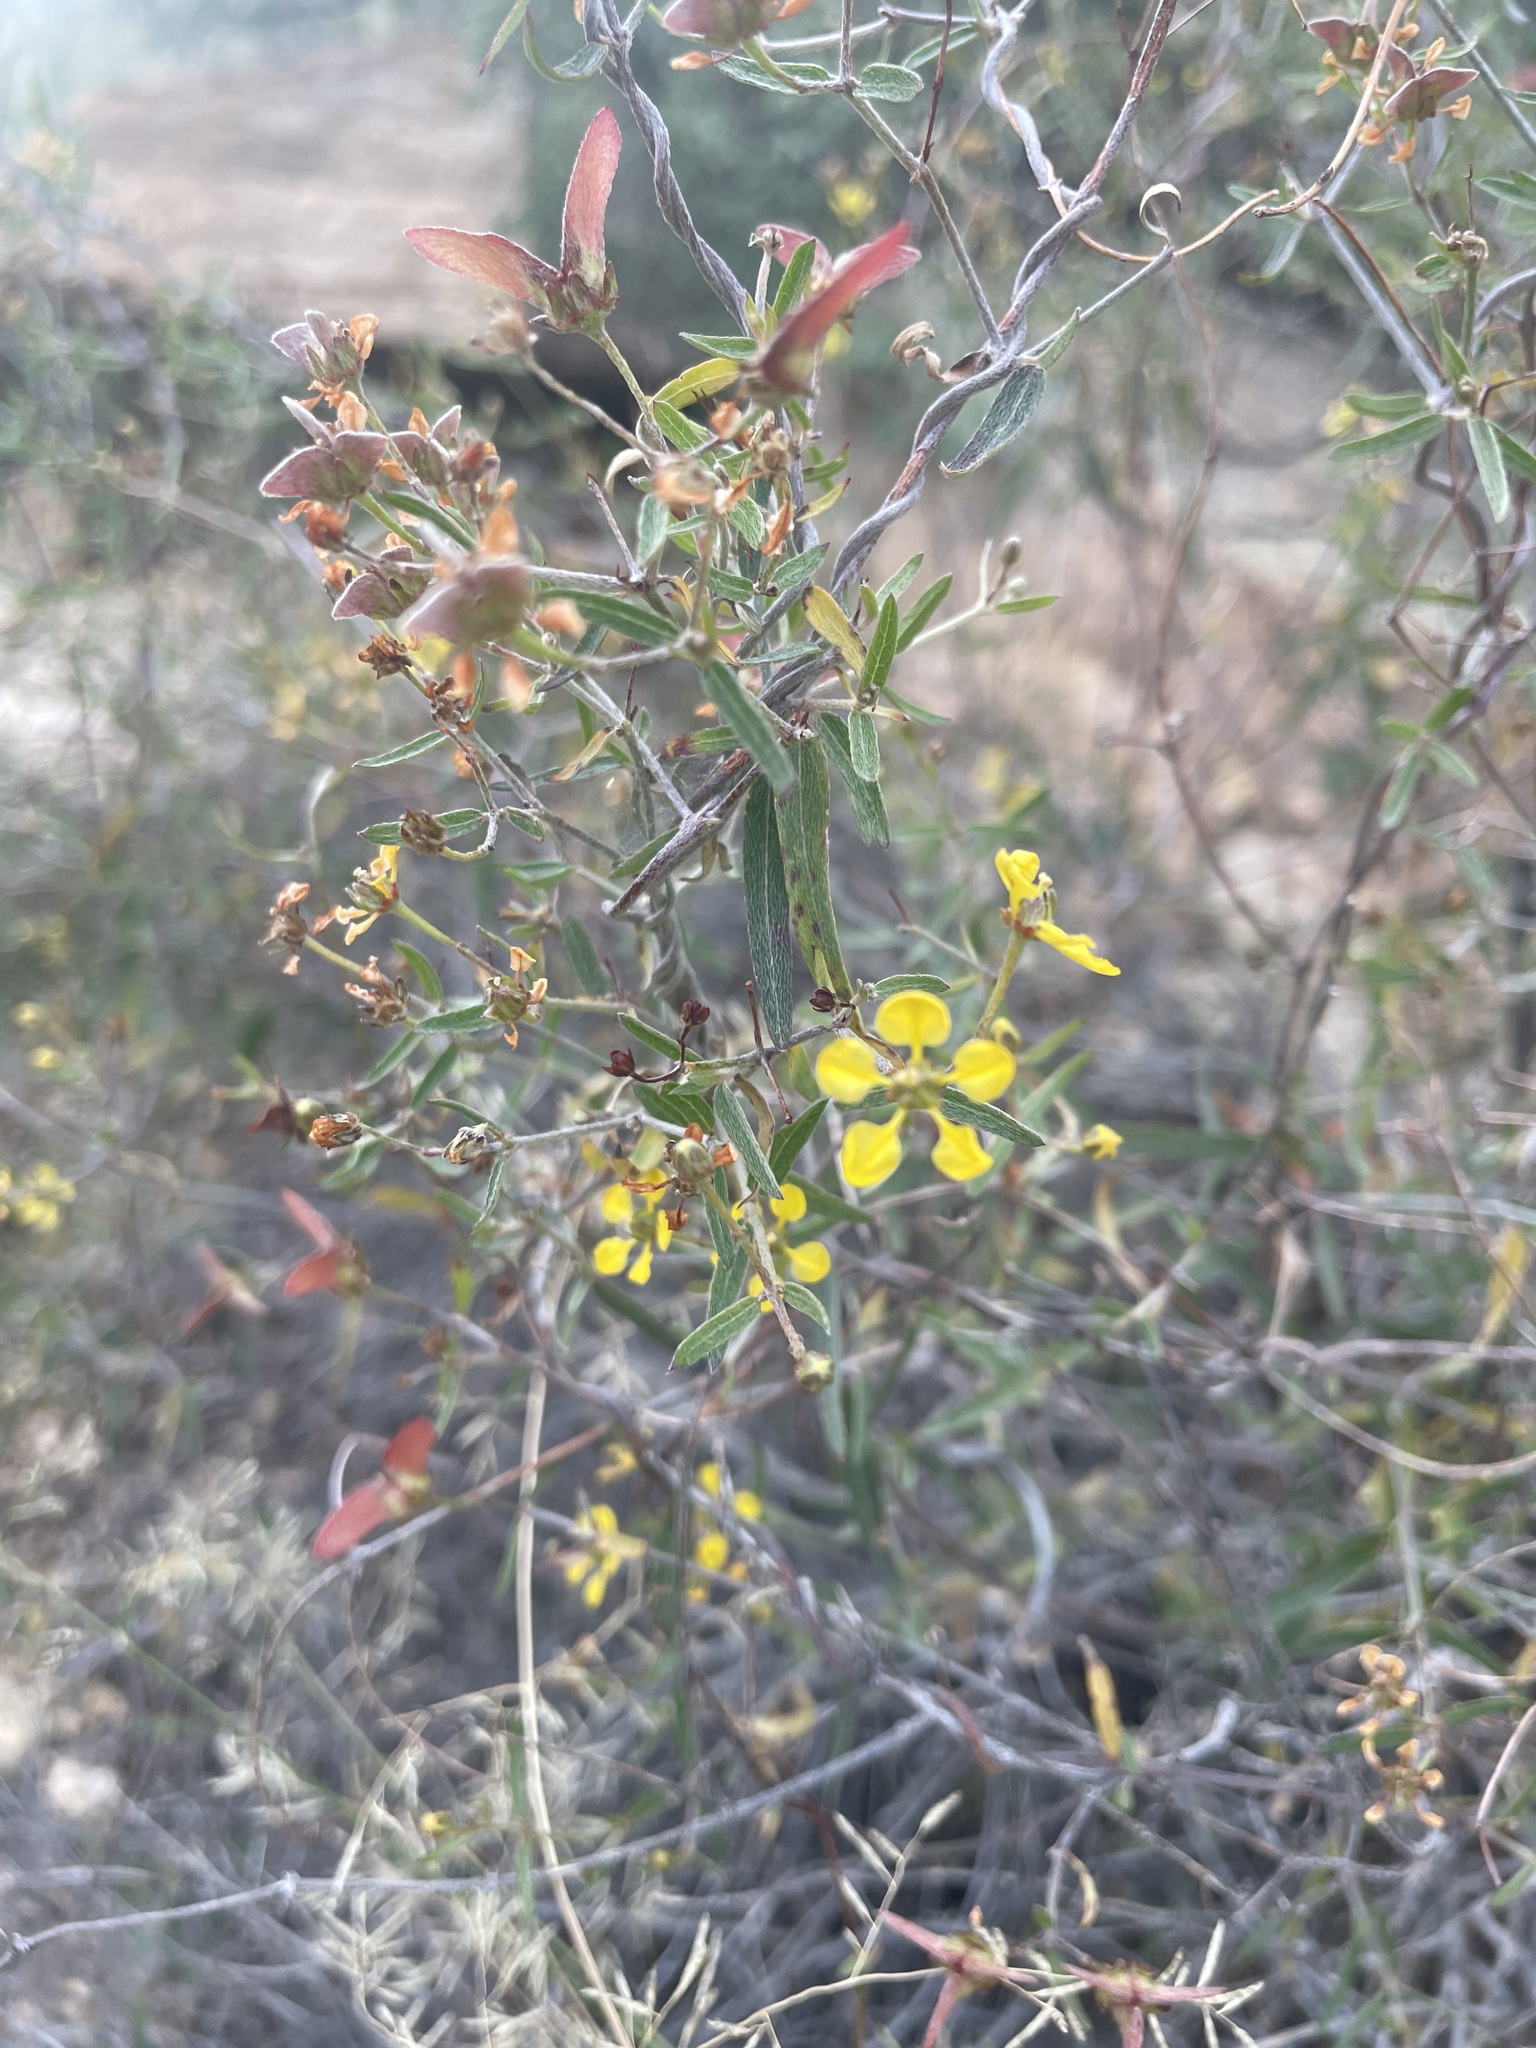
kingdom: Plantae
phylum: Tracheophyta
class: Magnoliopsida
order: Malpighiales
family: Malpighiaceae
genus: Cottsia
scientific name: Cottsia gracilis
